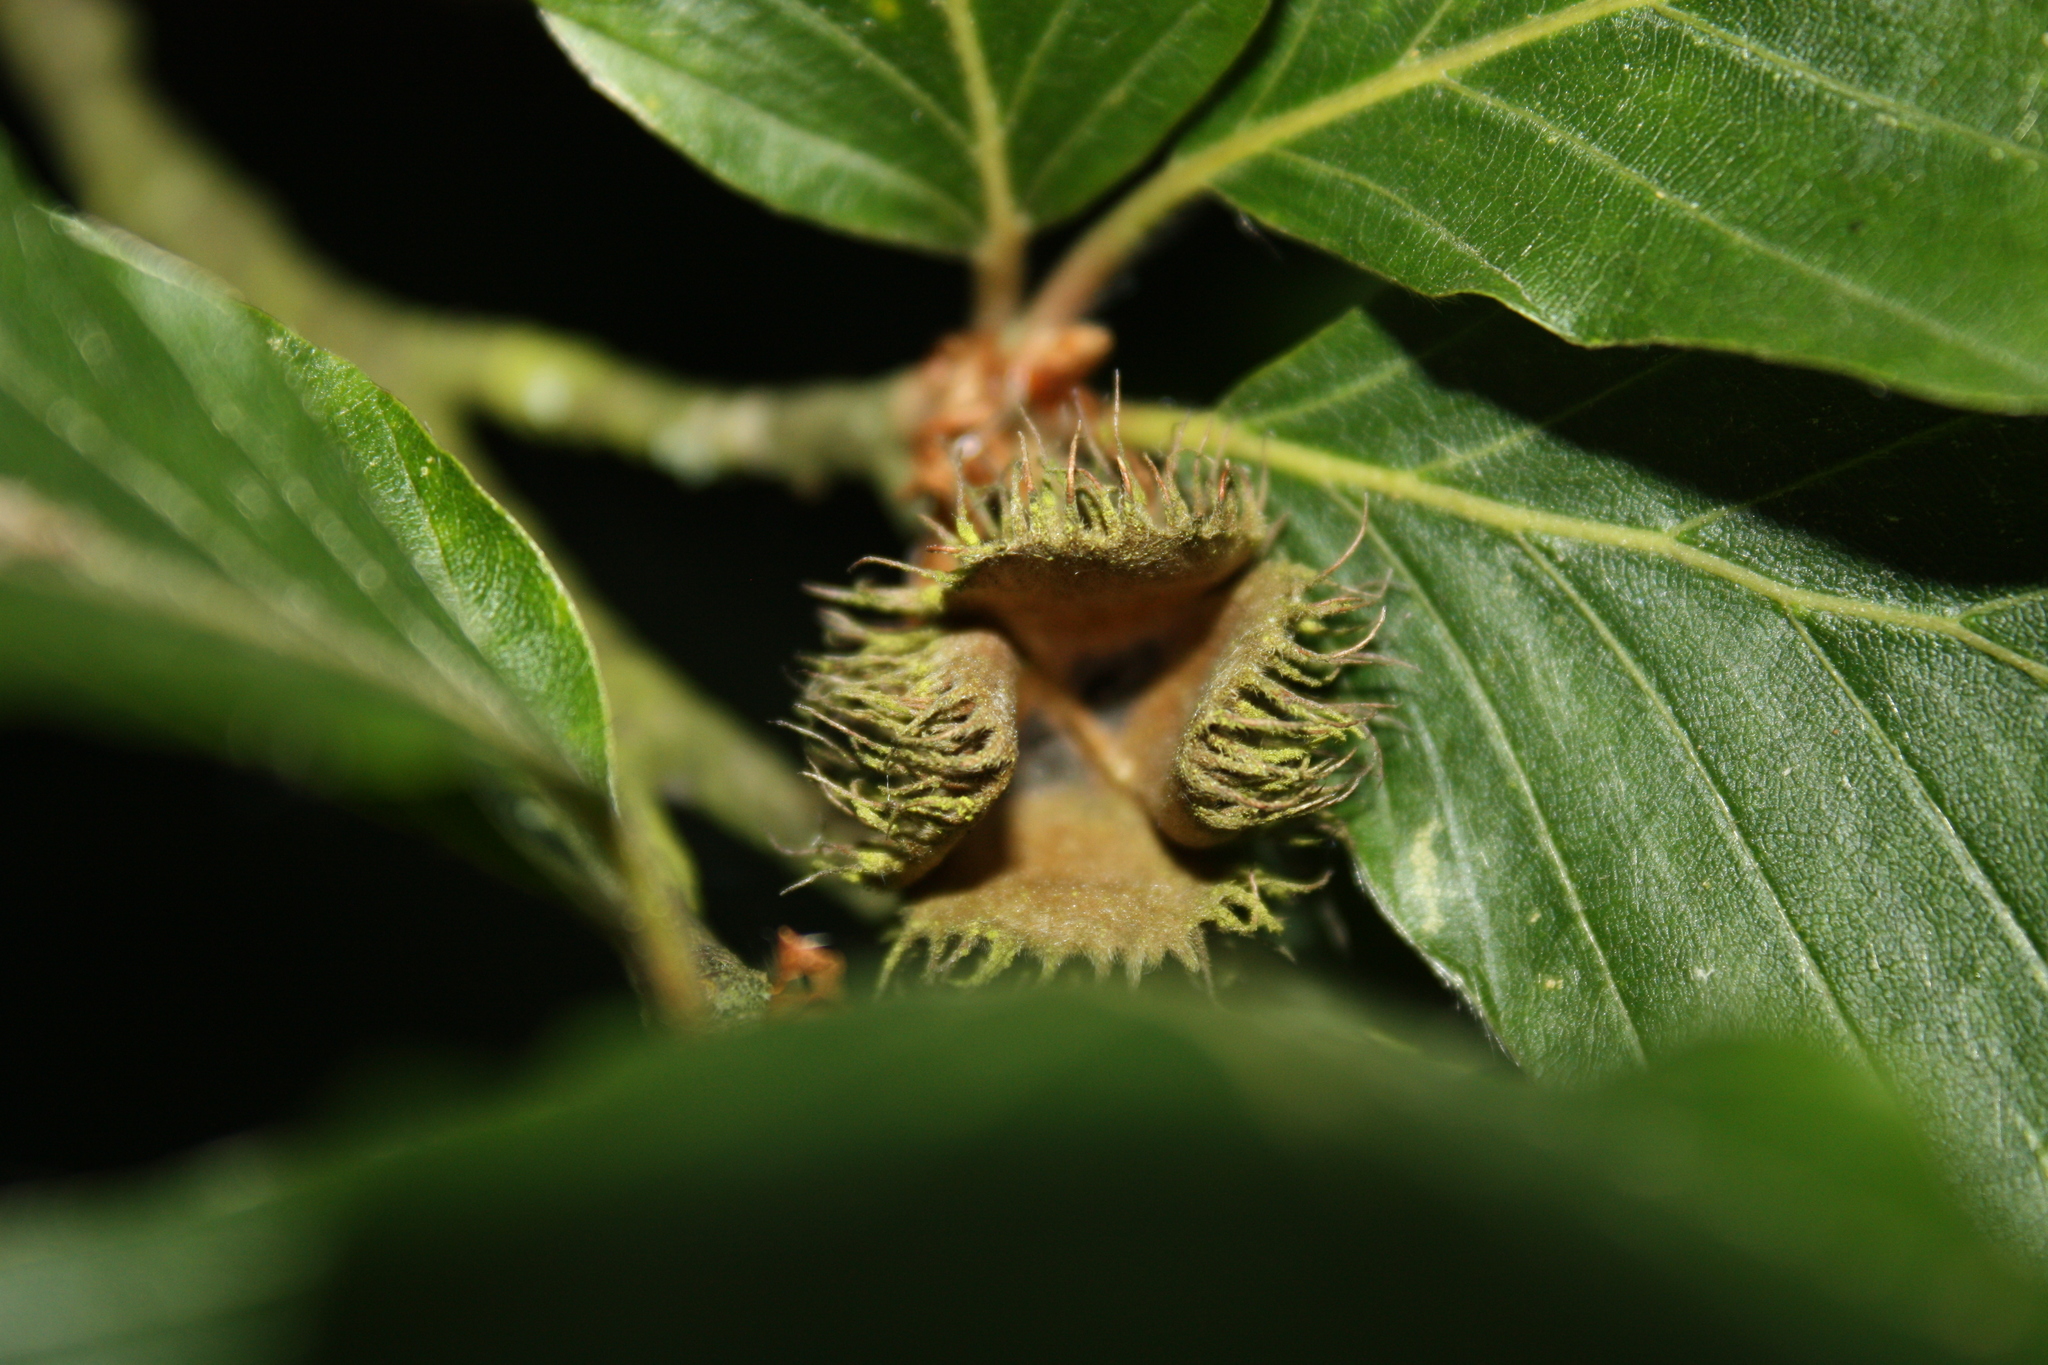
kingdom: Plantae
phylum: Tracheophyta
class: Magnoliopsida
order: Fagales
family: Fagaceae
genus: Fagus
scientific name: Fagus sylvatica
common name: Beech
